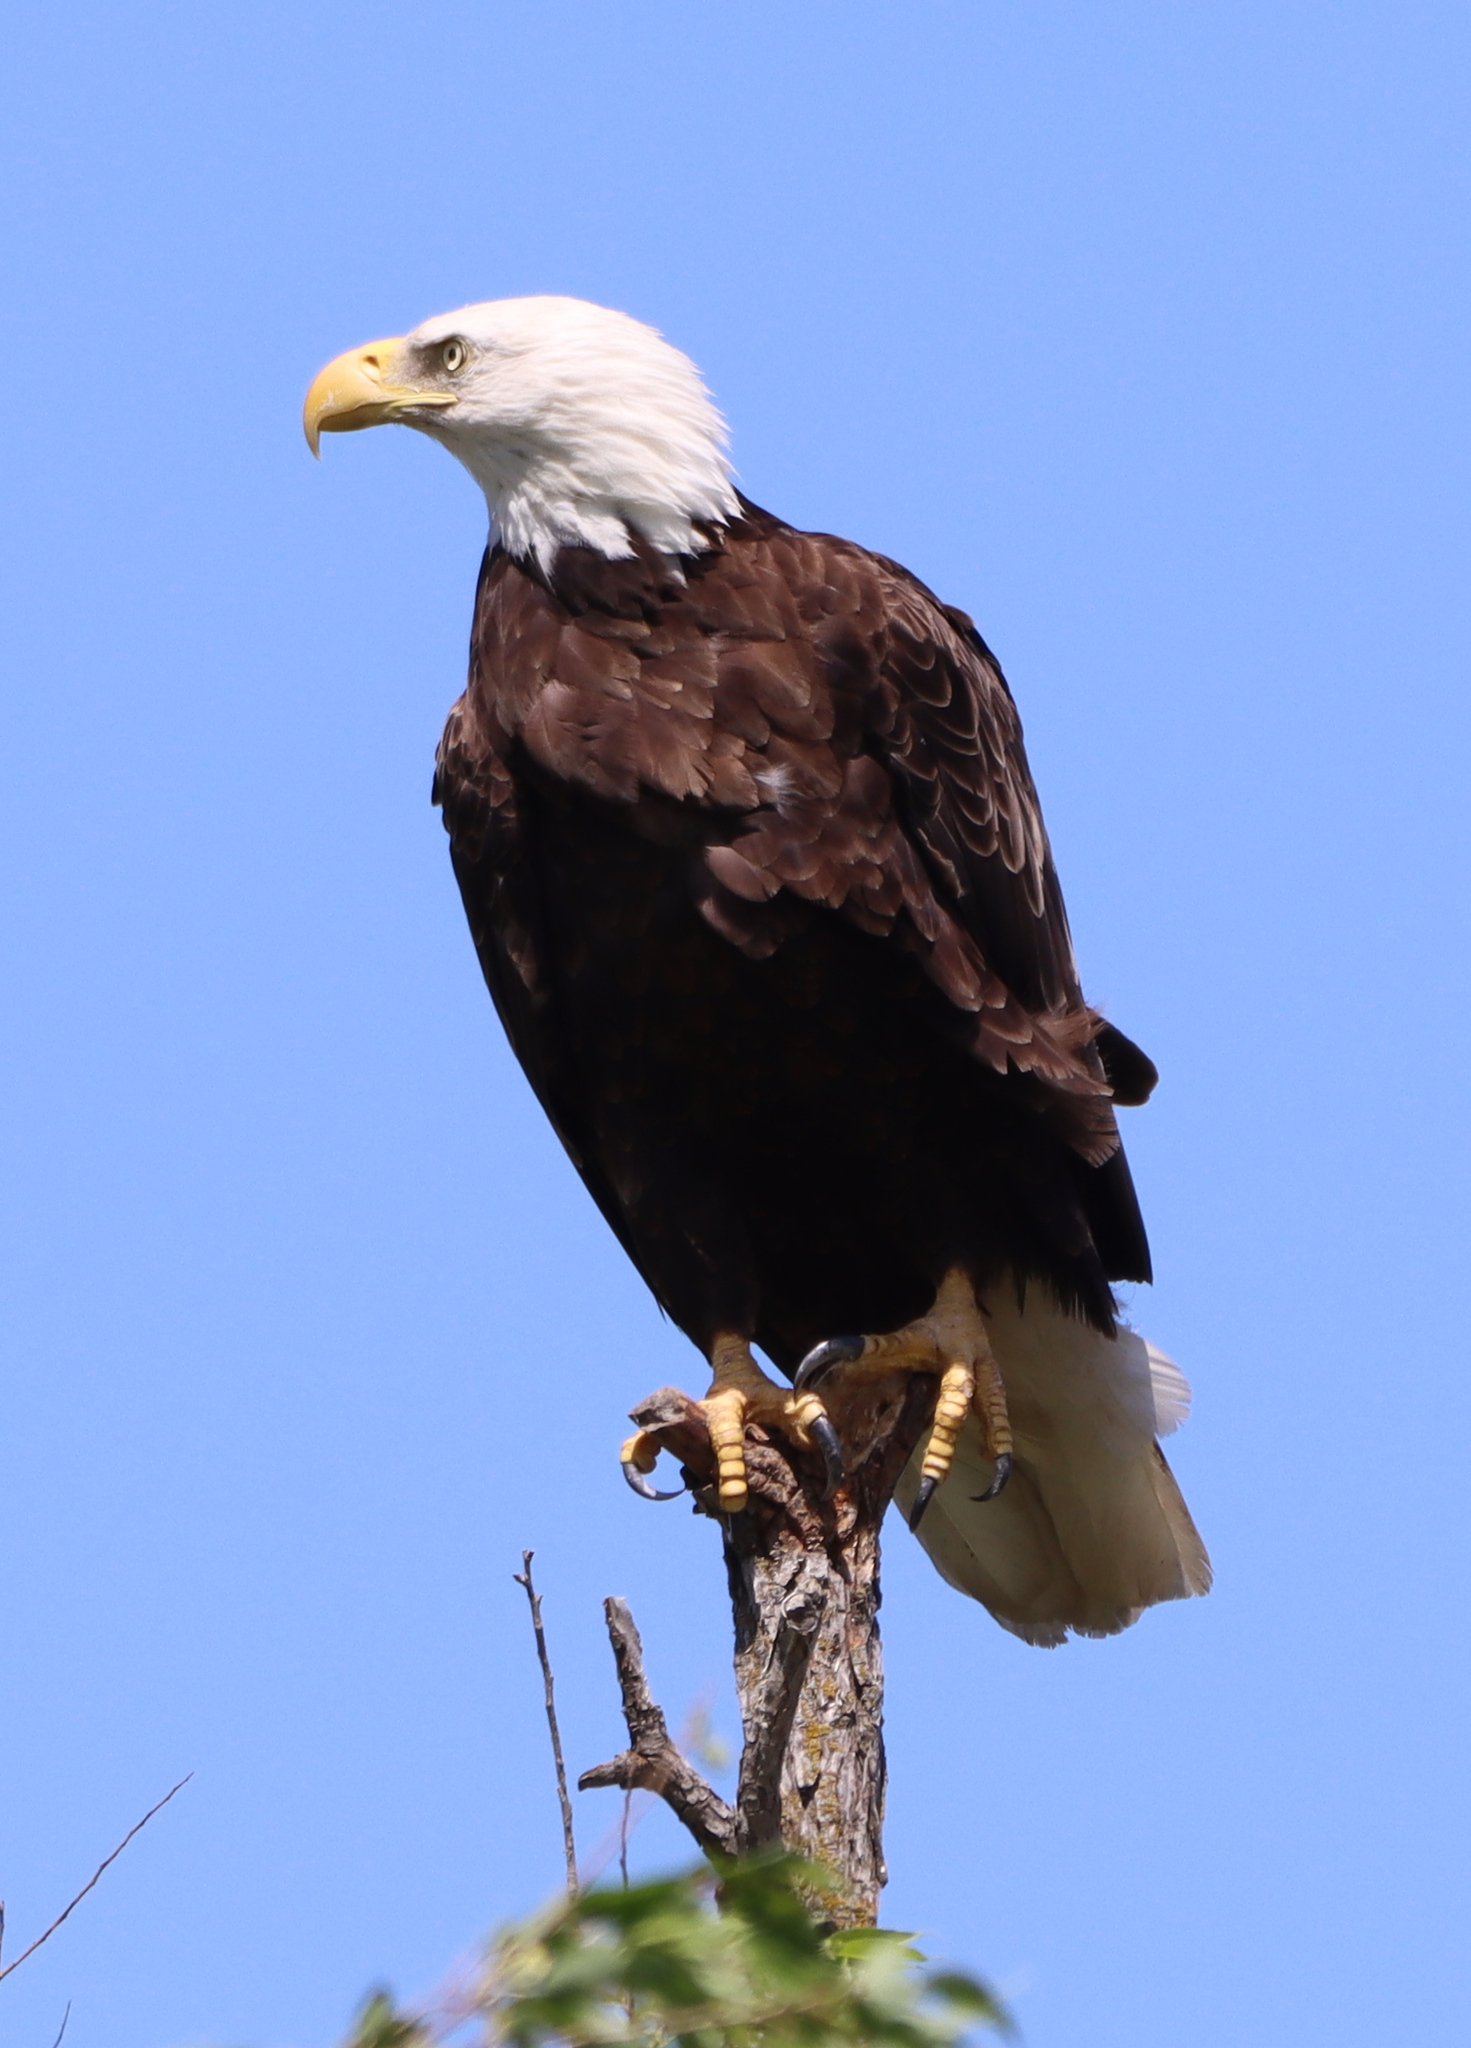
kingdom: Animalia
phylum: Chordata
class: Aves
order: Accipitriformes
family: Accipitridae
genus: Haliaeetus
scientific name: Haliaeetus leucocephalus
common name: Bald eagle
